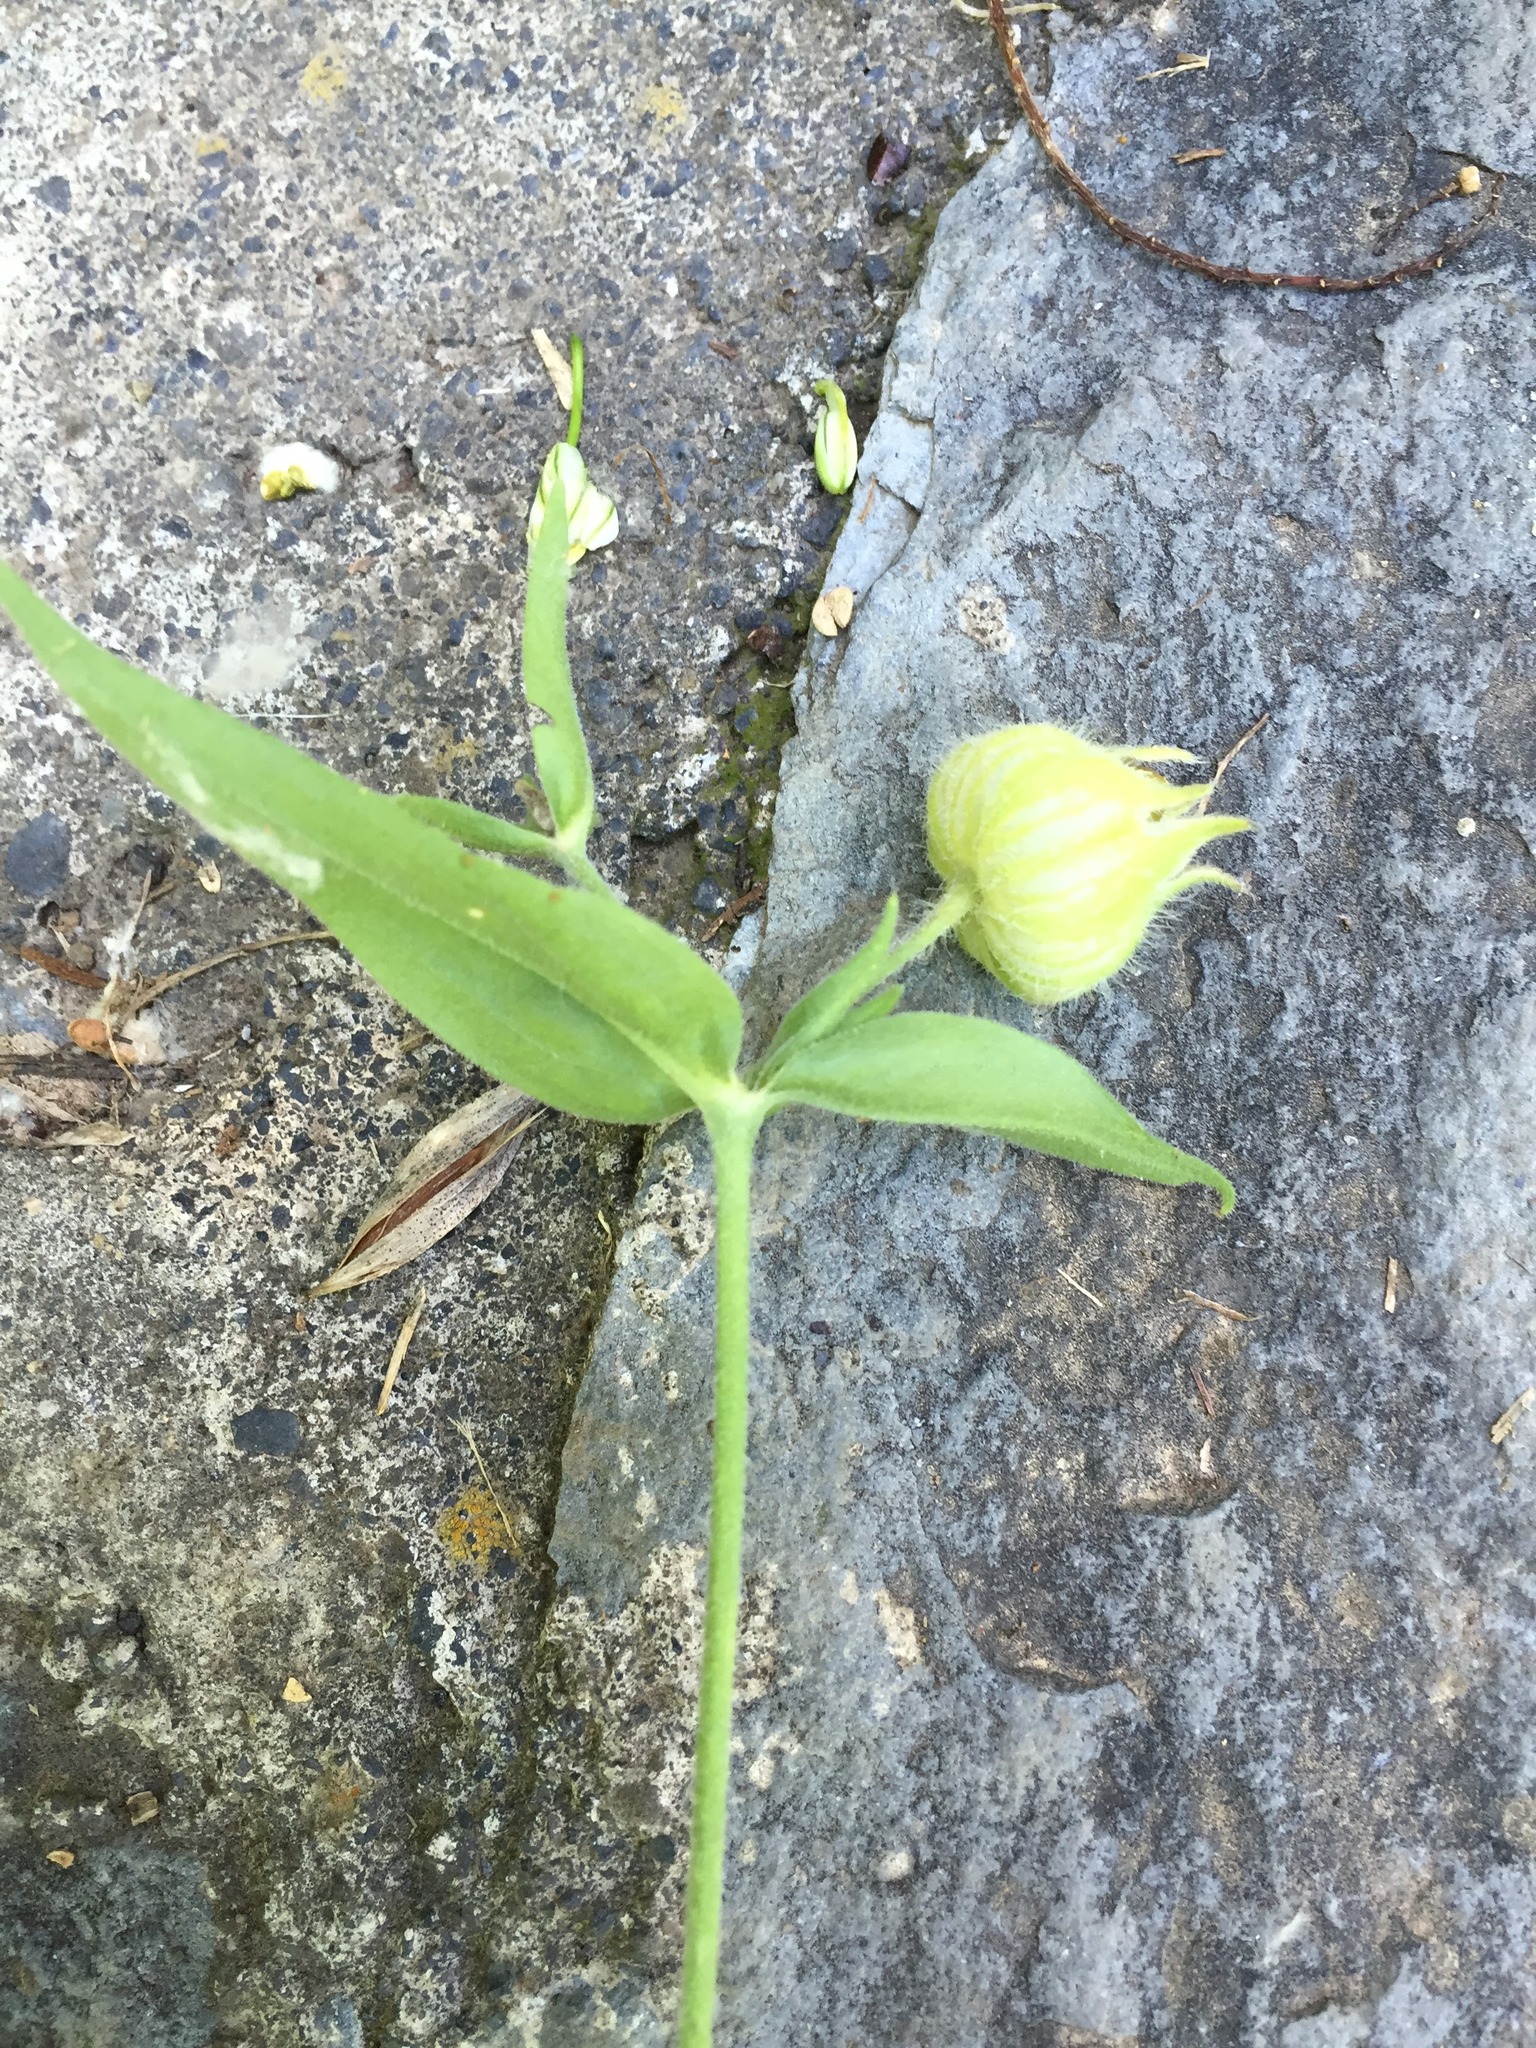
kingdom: Plantae
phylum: Tracheophyta
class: Magnoliopsida
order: Caryophyllales
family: Caryophyllaceae
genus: Silene
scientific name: Silene vulgaris
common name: Bladder campion
